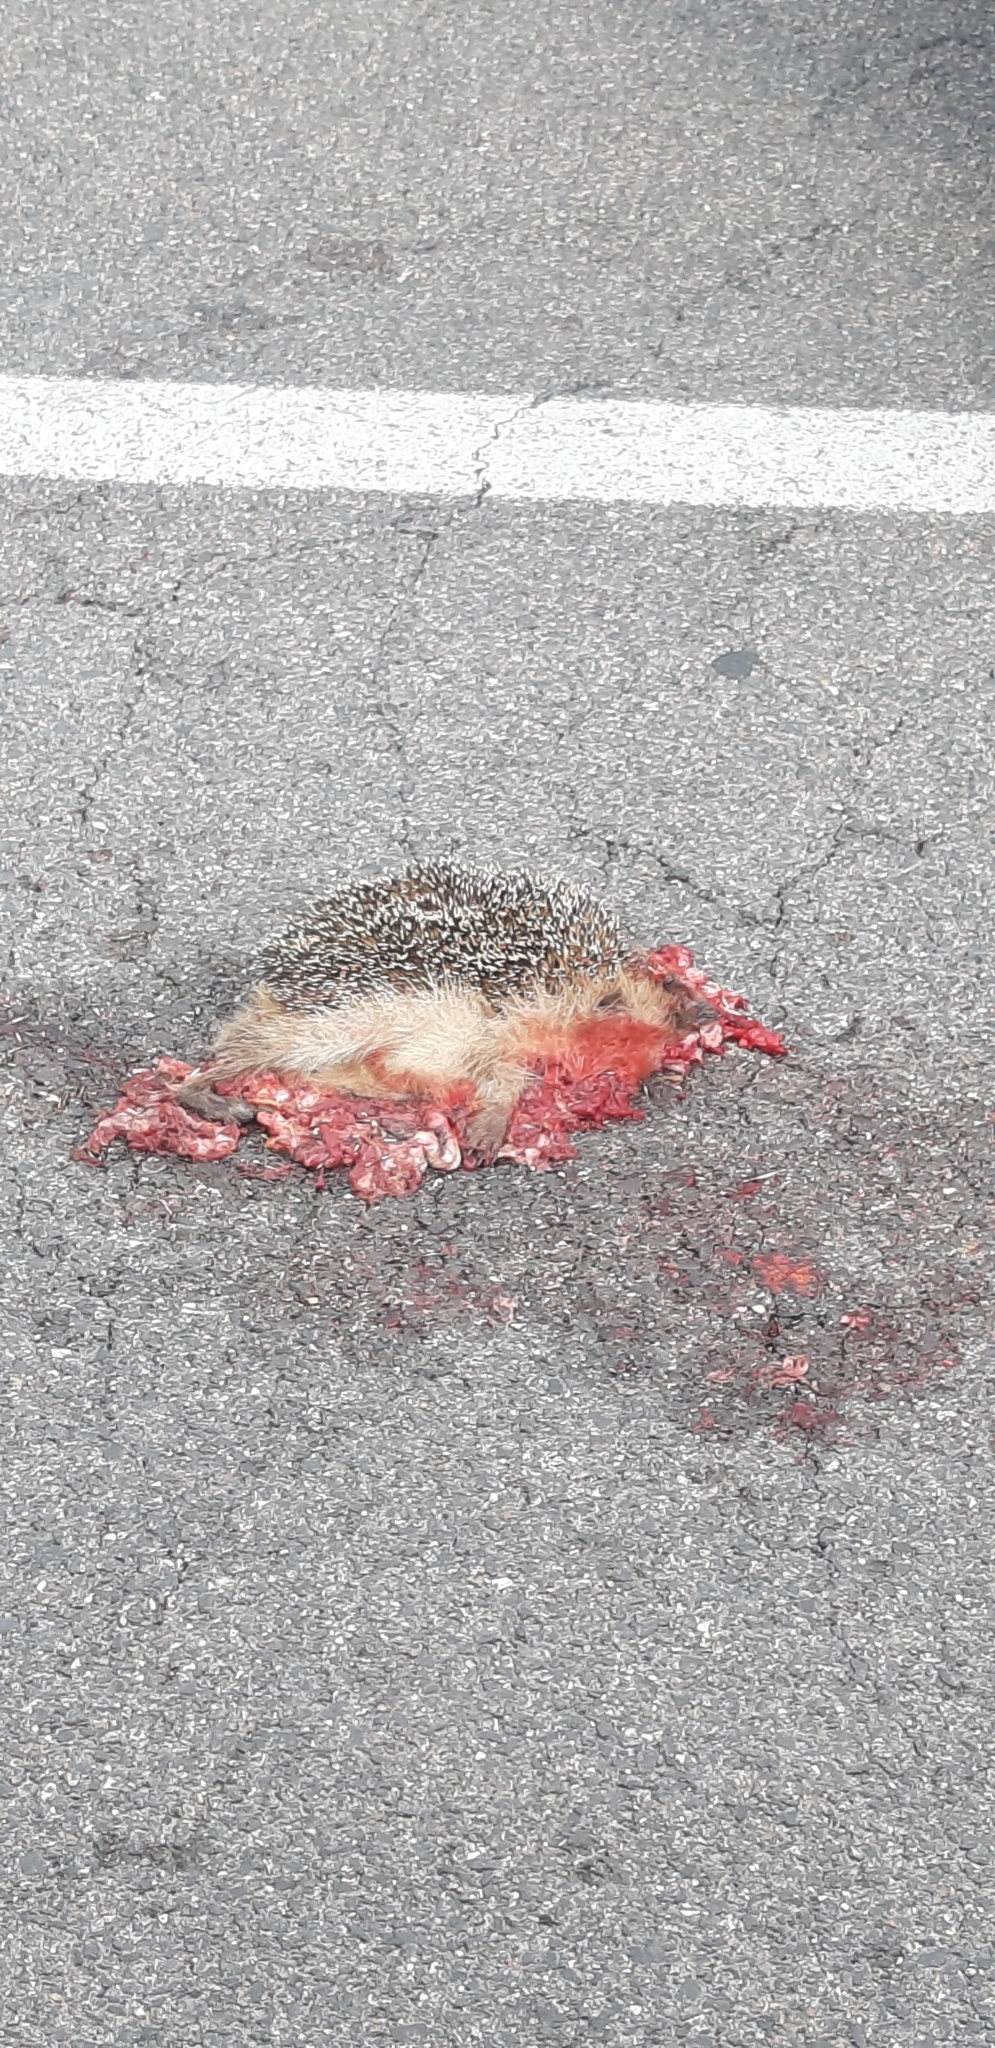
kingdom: Animalia
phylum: Chordata
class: Mammalia
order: Erinaceomorpha
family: Erinaceidae
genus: Erinaceus
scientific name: Erinaceus europaeus
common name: West european hedgehog
